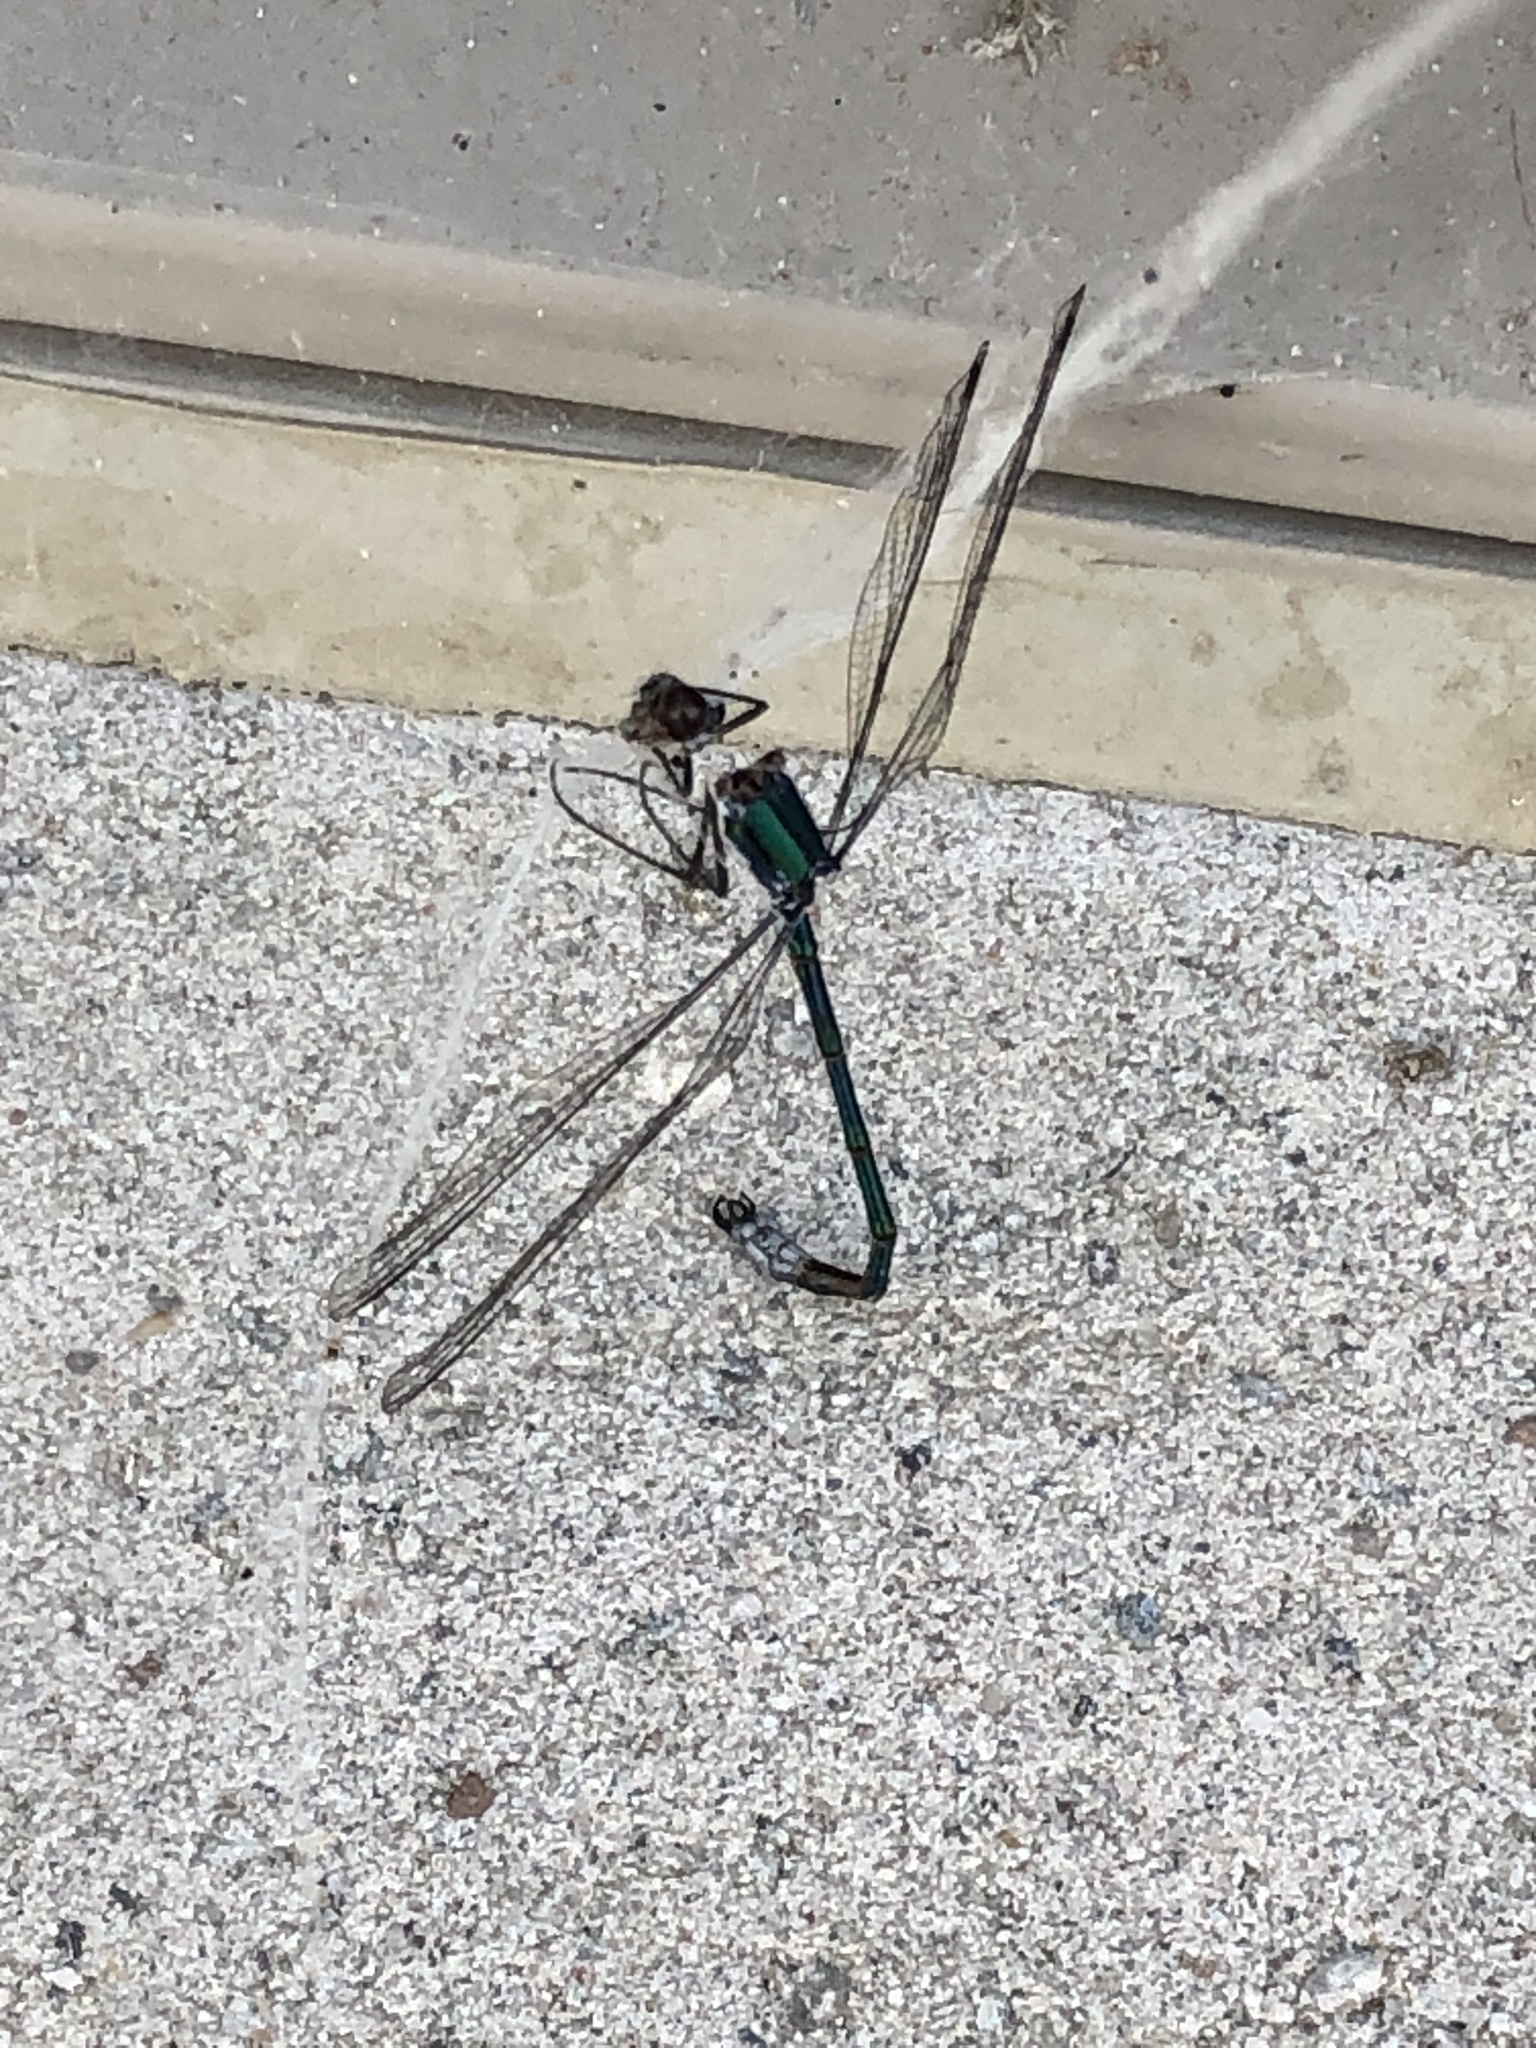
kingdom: Animalia
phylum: Arthropoda
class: Insecta
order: Odonata
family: Lestidae
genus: Lestes
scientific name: Lestes dryas
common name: Scarce emerald damselfly
